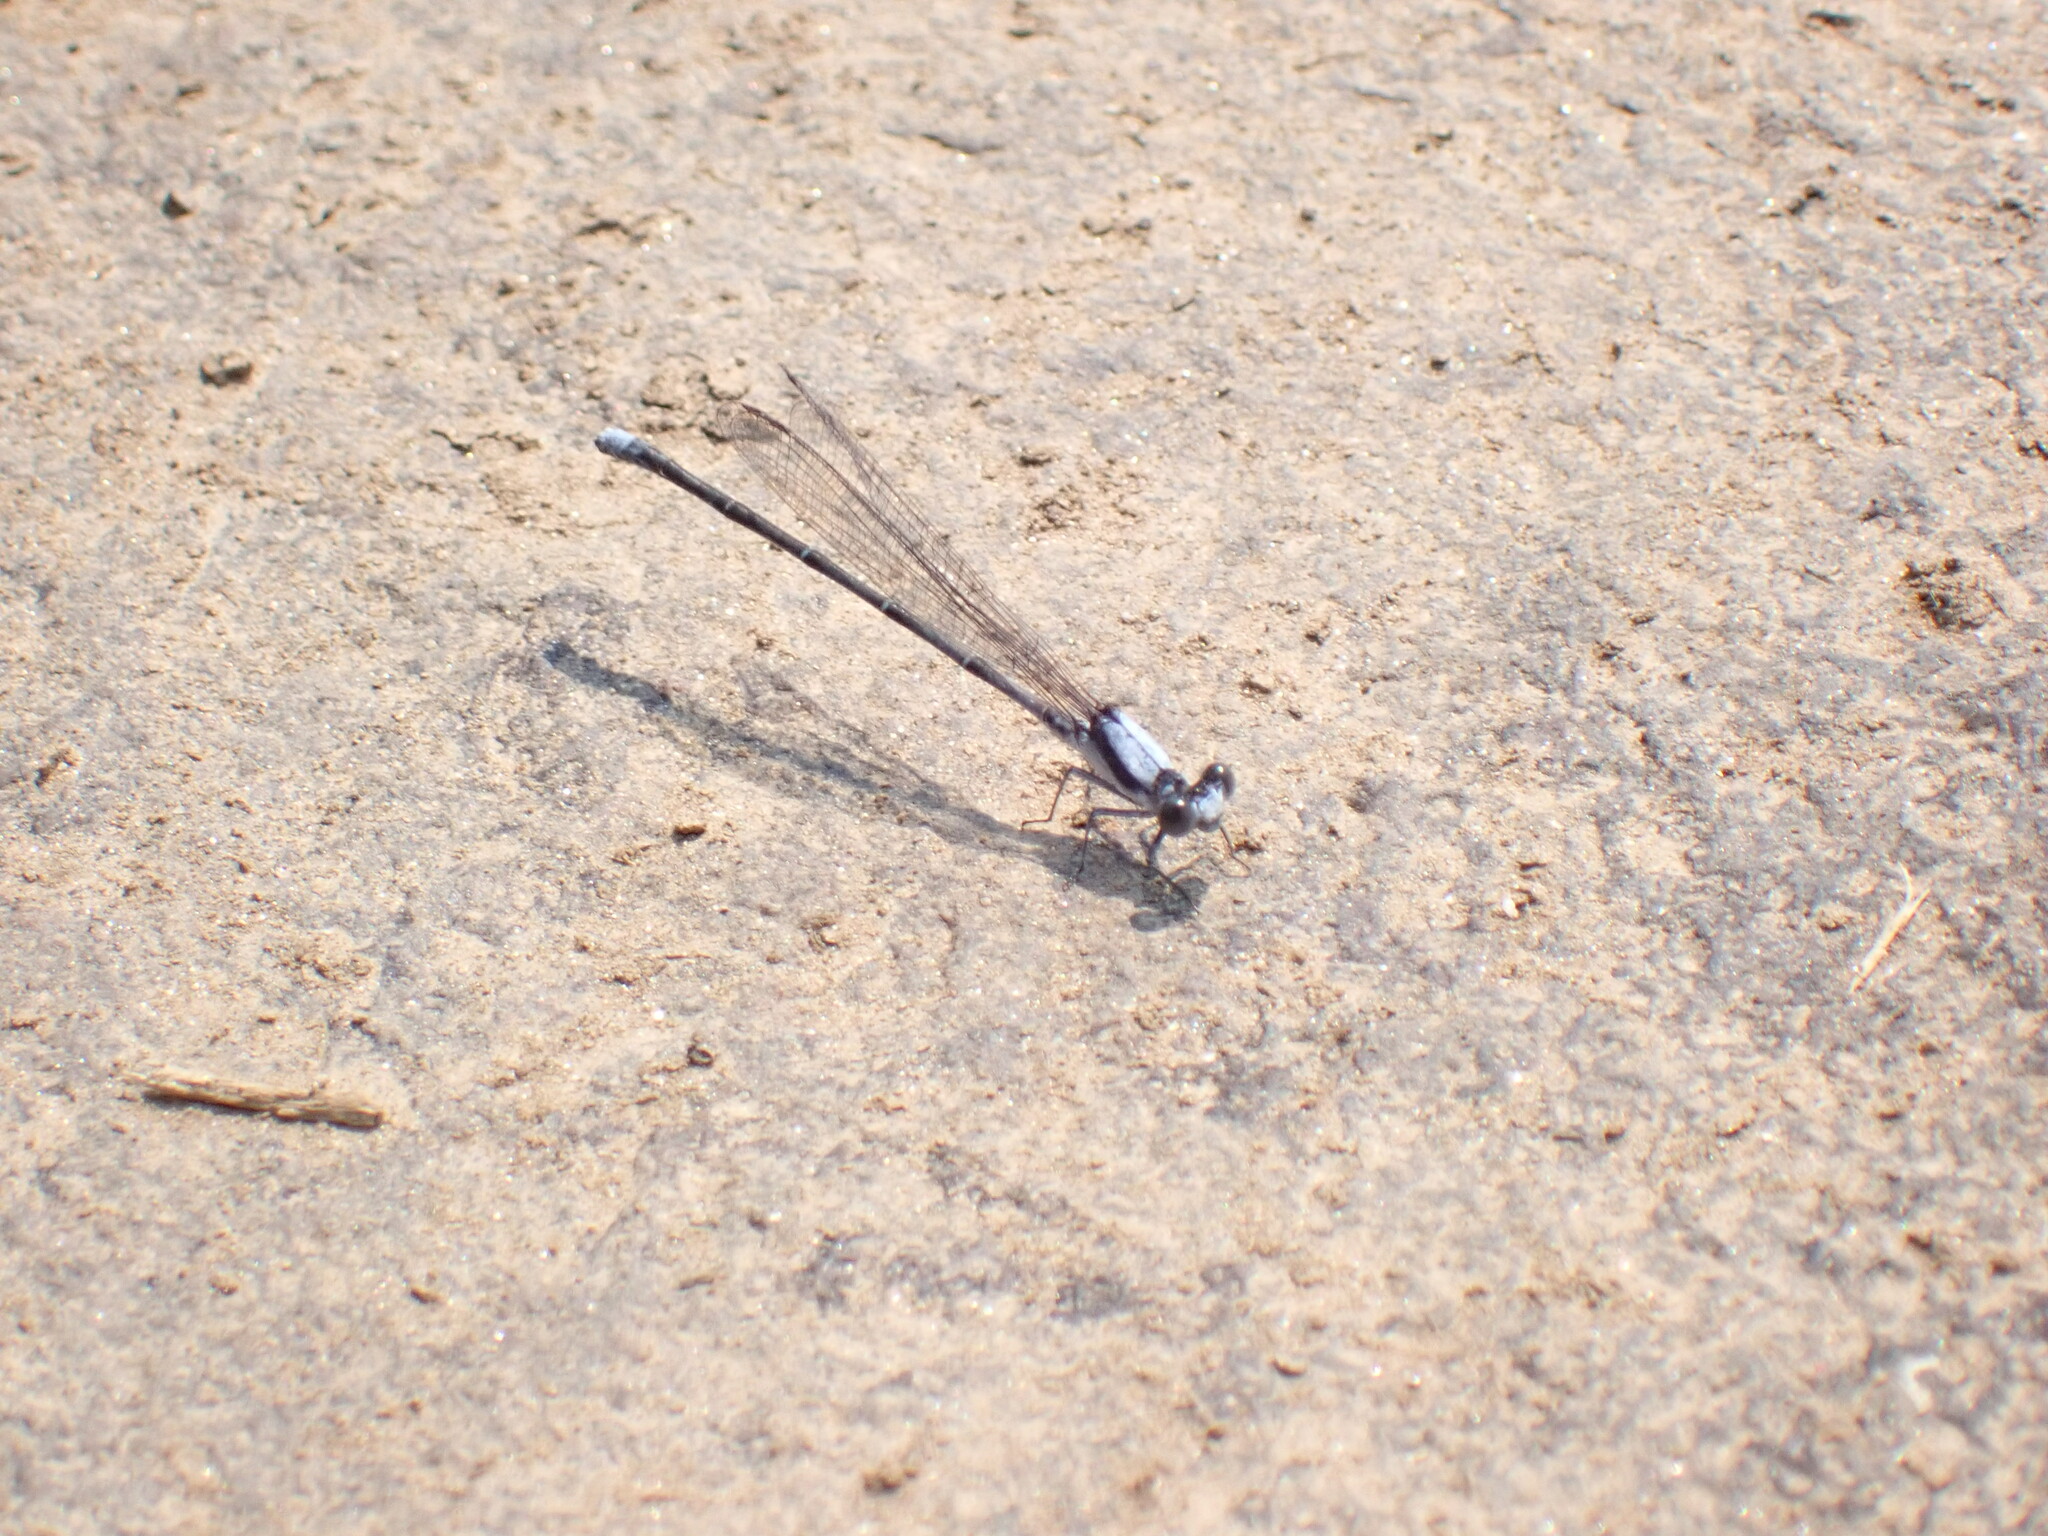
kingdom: Animalia
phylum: Arthropoda
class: Insecta
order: Odonata
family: Coenagrionidae
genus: Argia
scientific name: Argia moesta
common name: Powdered dancer
